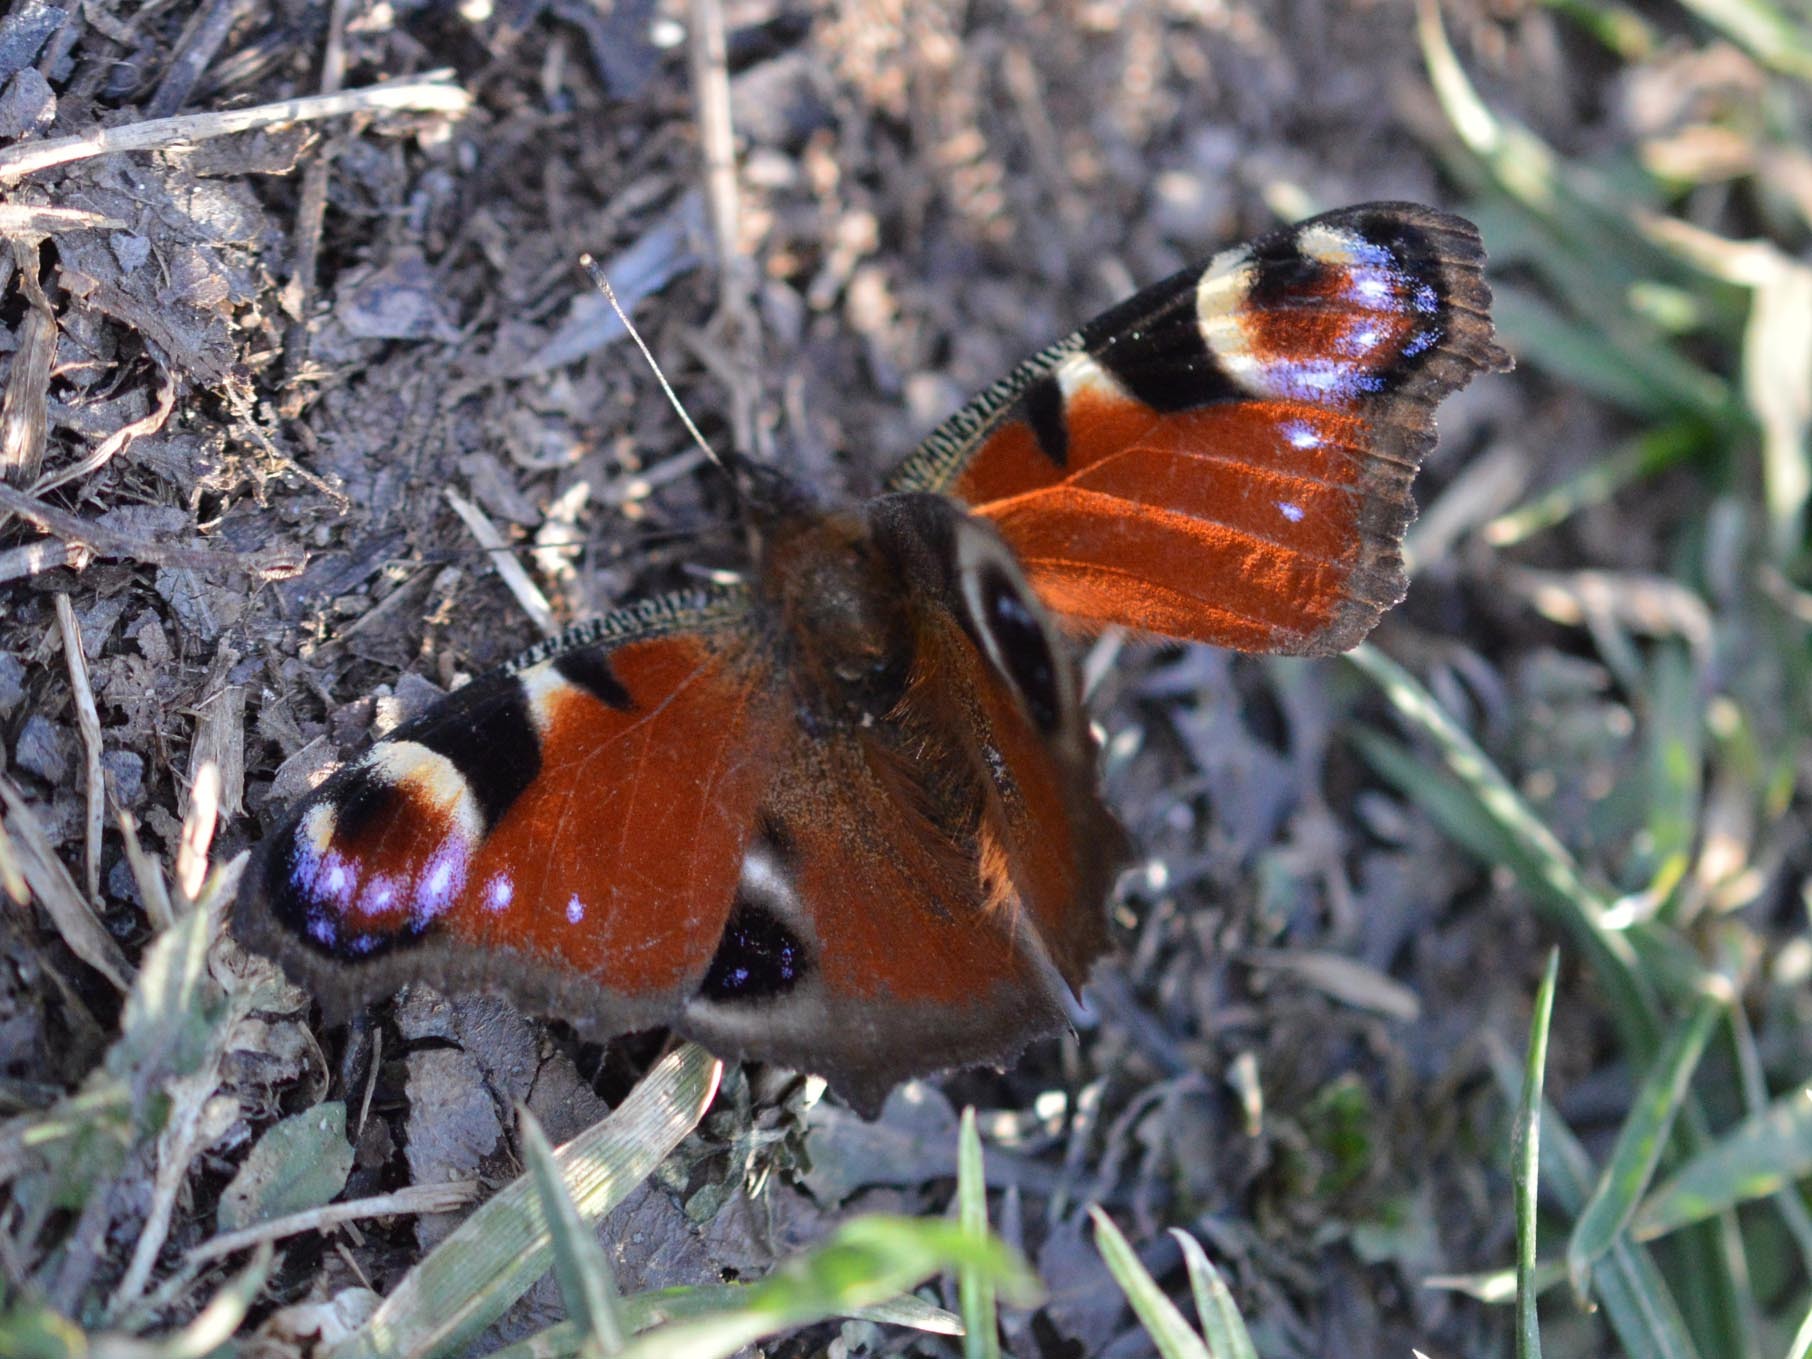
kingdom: Animalia
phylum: Arthropoda
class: Insecta
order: Lepidoptera
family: Nymphalidae
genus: Aglais
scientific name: Aglais io
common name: Peacock
